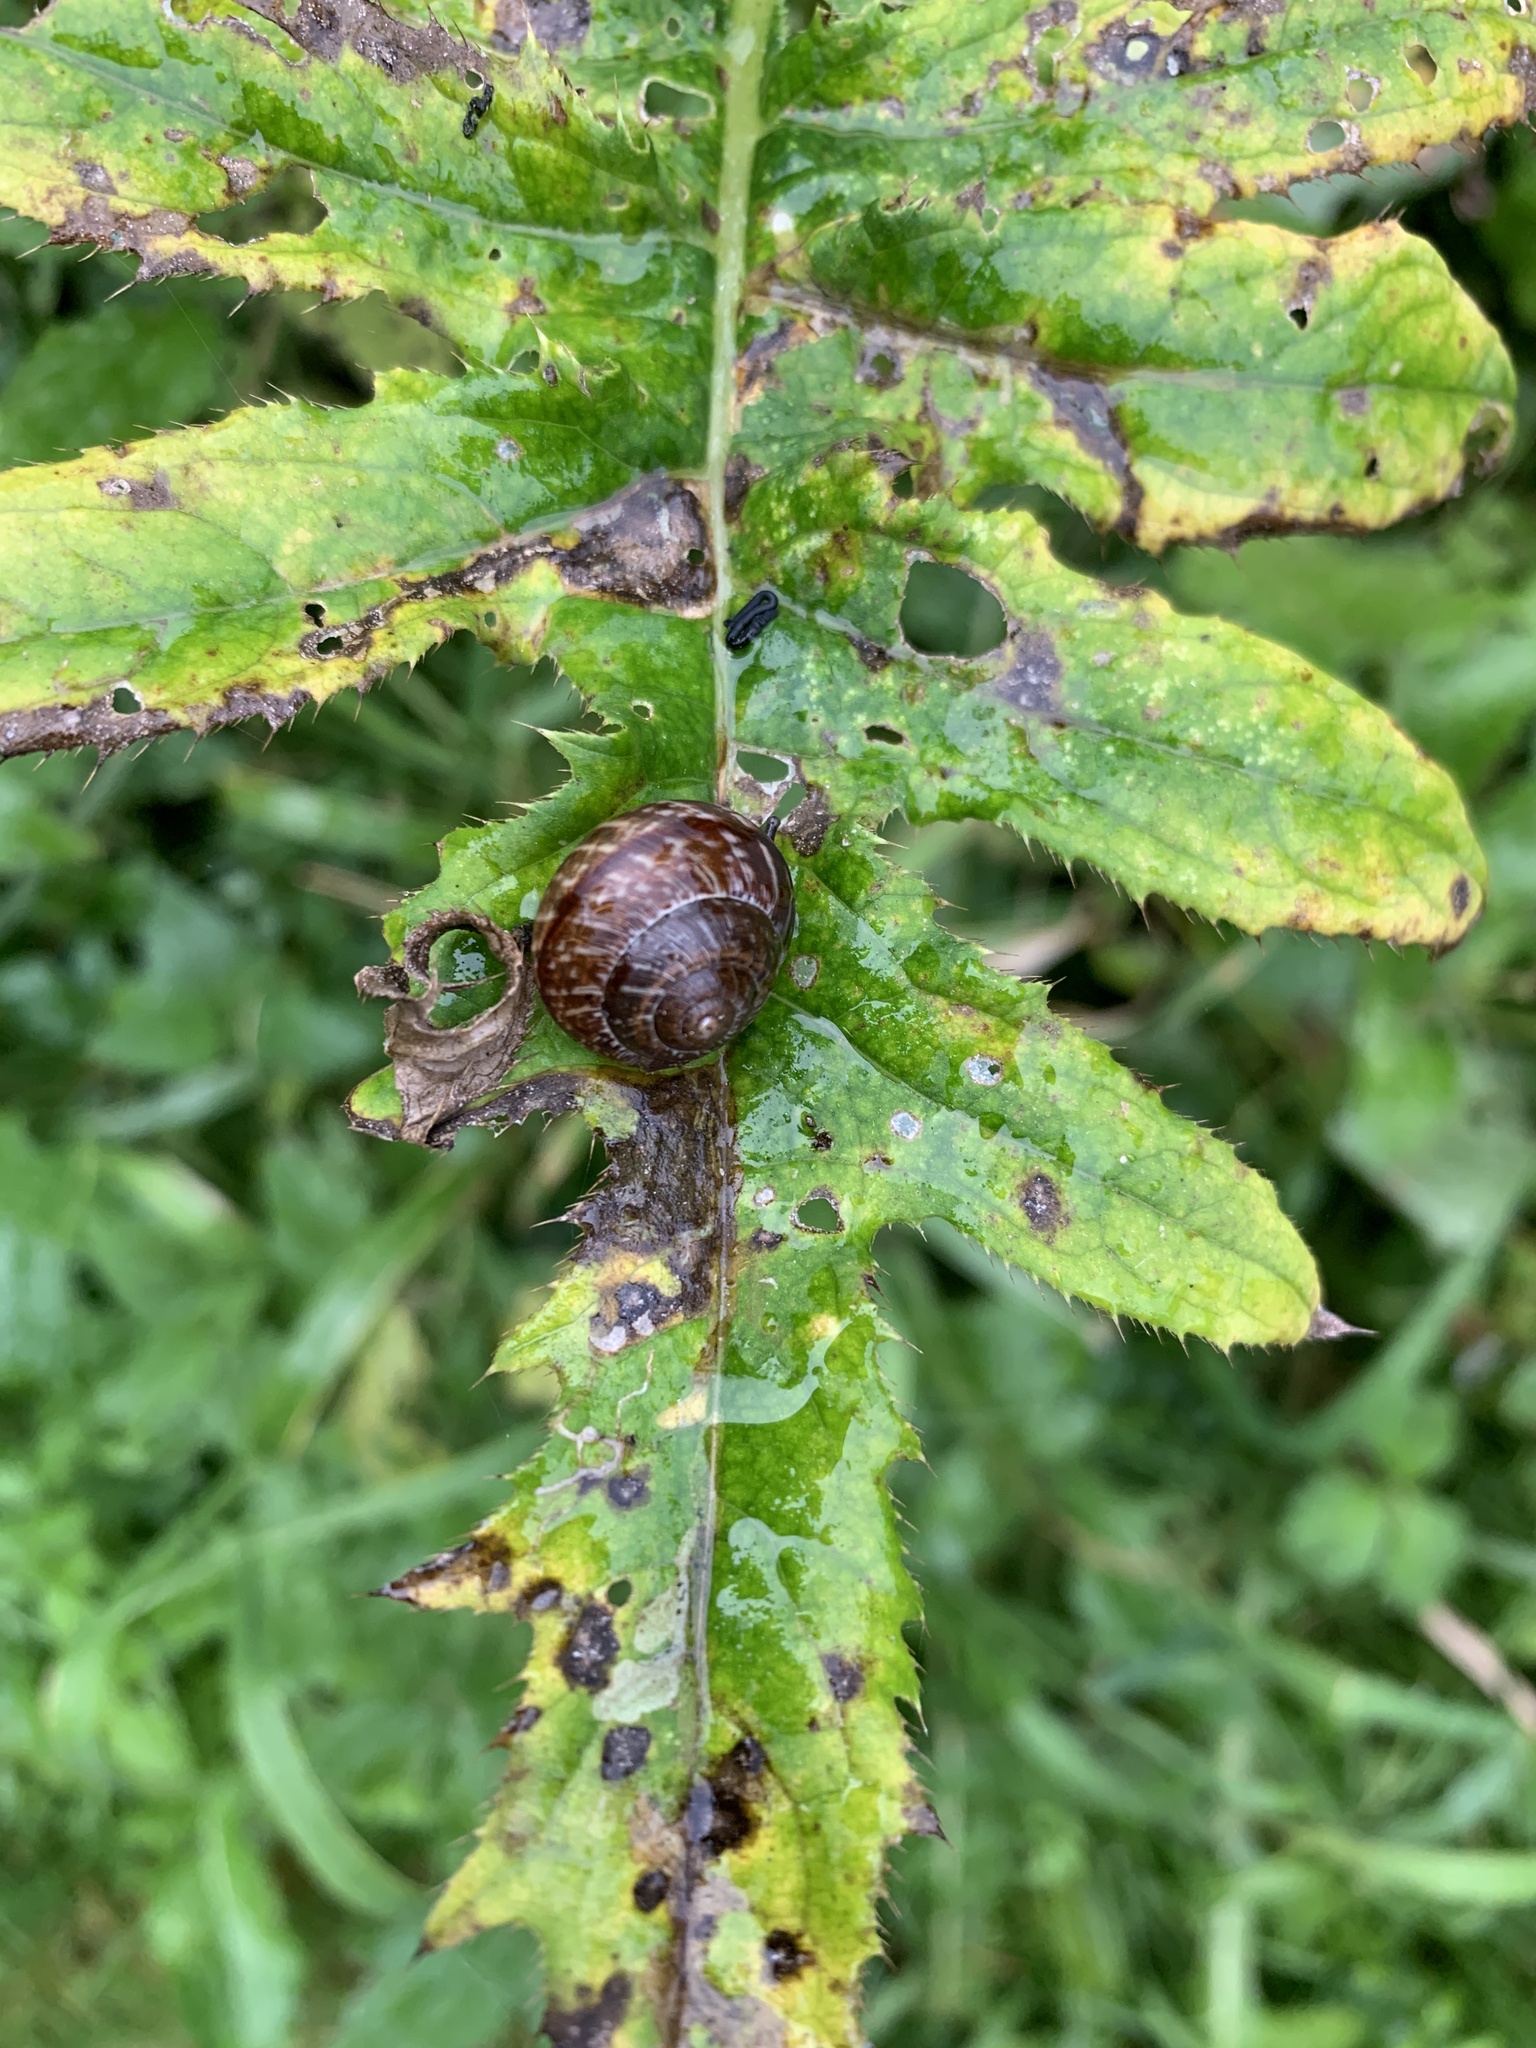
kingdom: Animalia
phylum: Mollusca
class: Gastropoda
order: Stylommatophora
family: Helicidae
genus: Arianta
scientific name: Arianta arbustorum
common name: Copse snail
